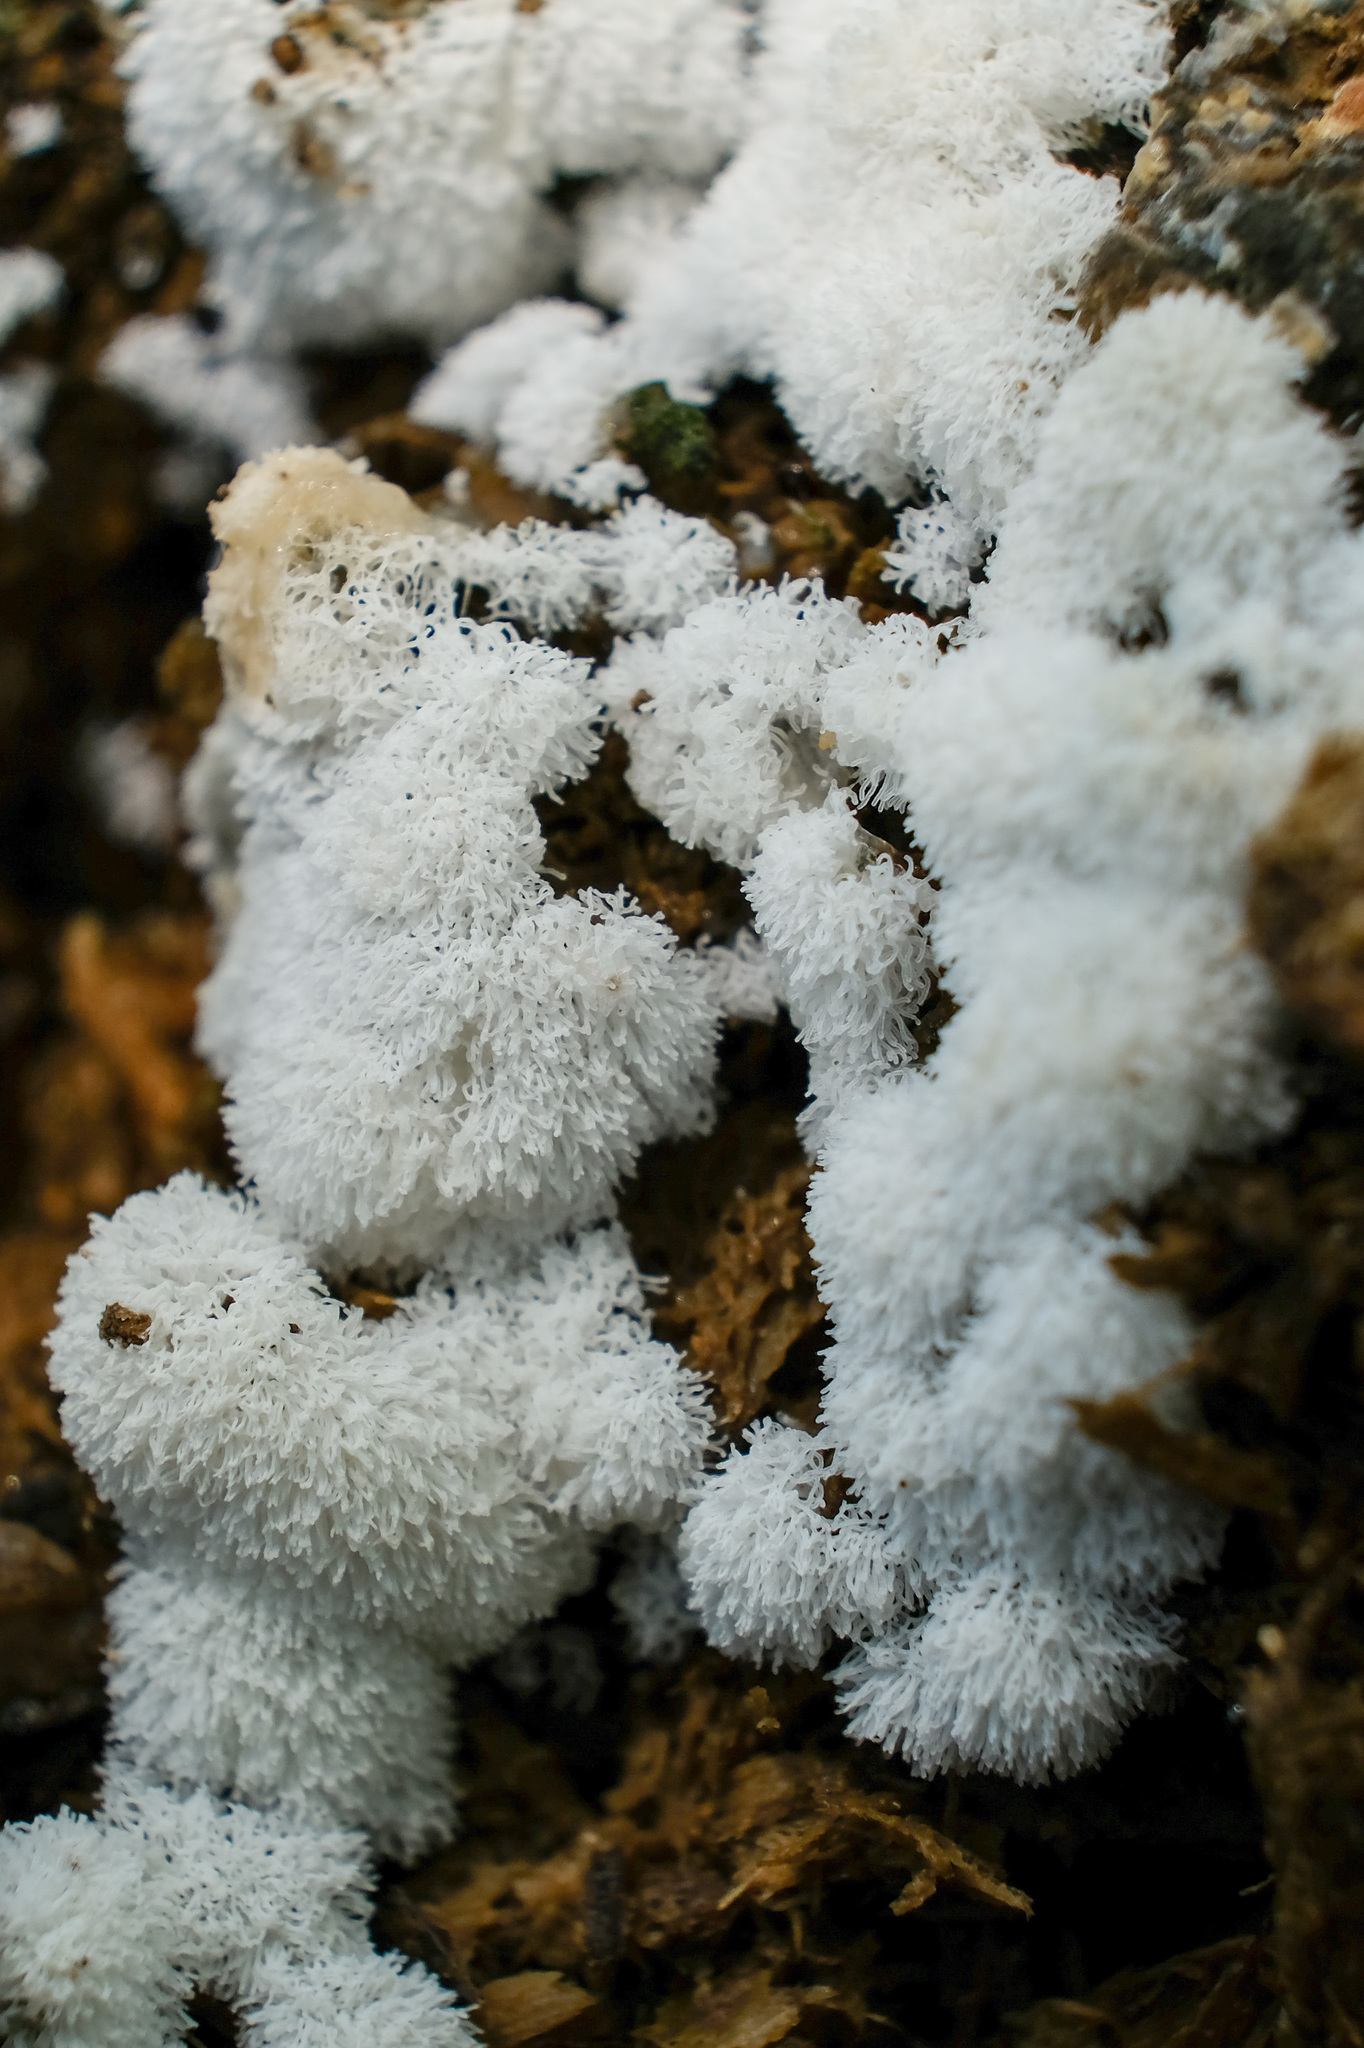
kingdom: Protozoa
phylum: Mycetozoa
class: Protosteliomycetes
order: Ceratiomyxales
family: Ceratiomyxaceae
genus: Ceratiomyxa
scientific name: Ceratiomyxa fruticulosa
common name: Honeycomb coral slime mold
